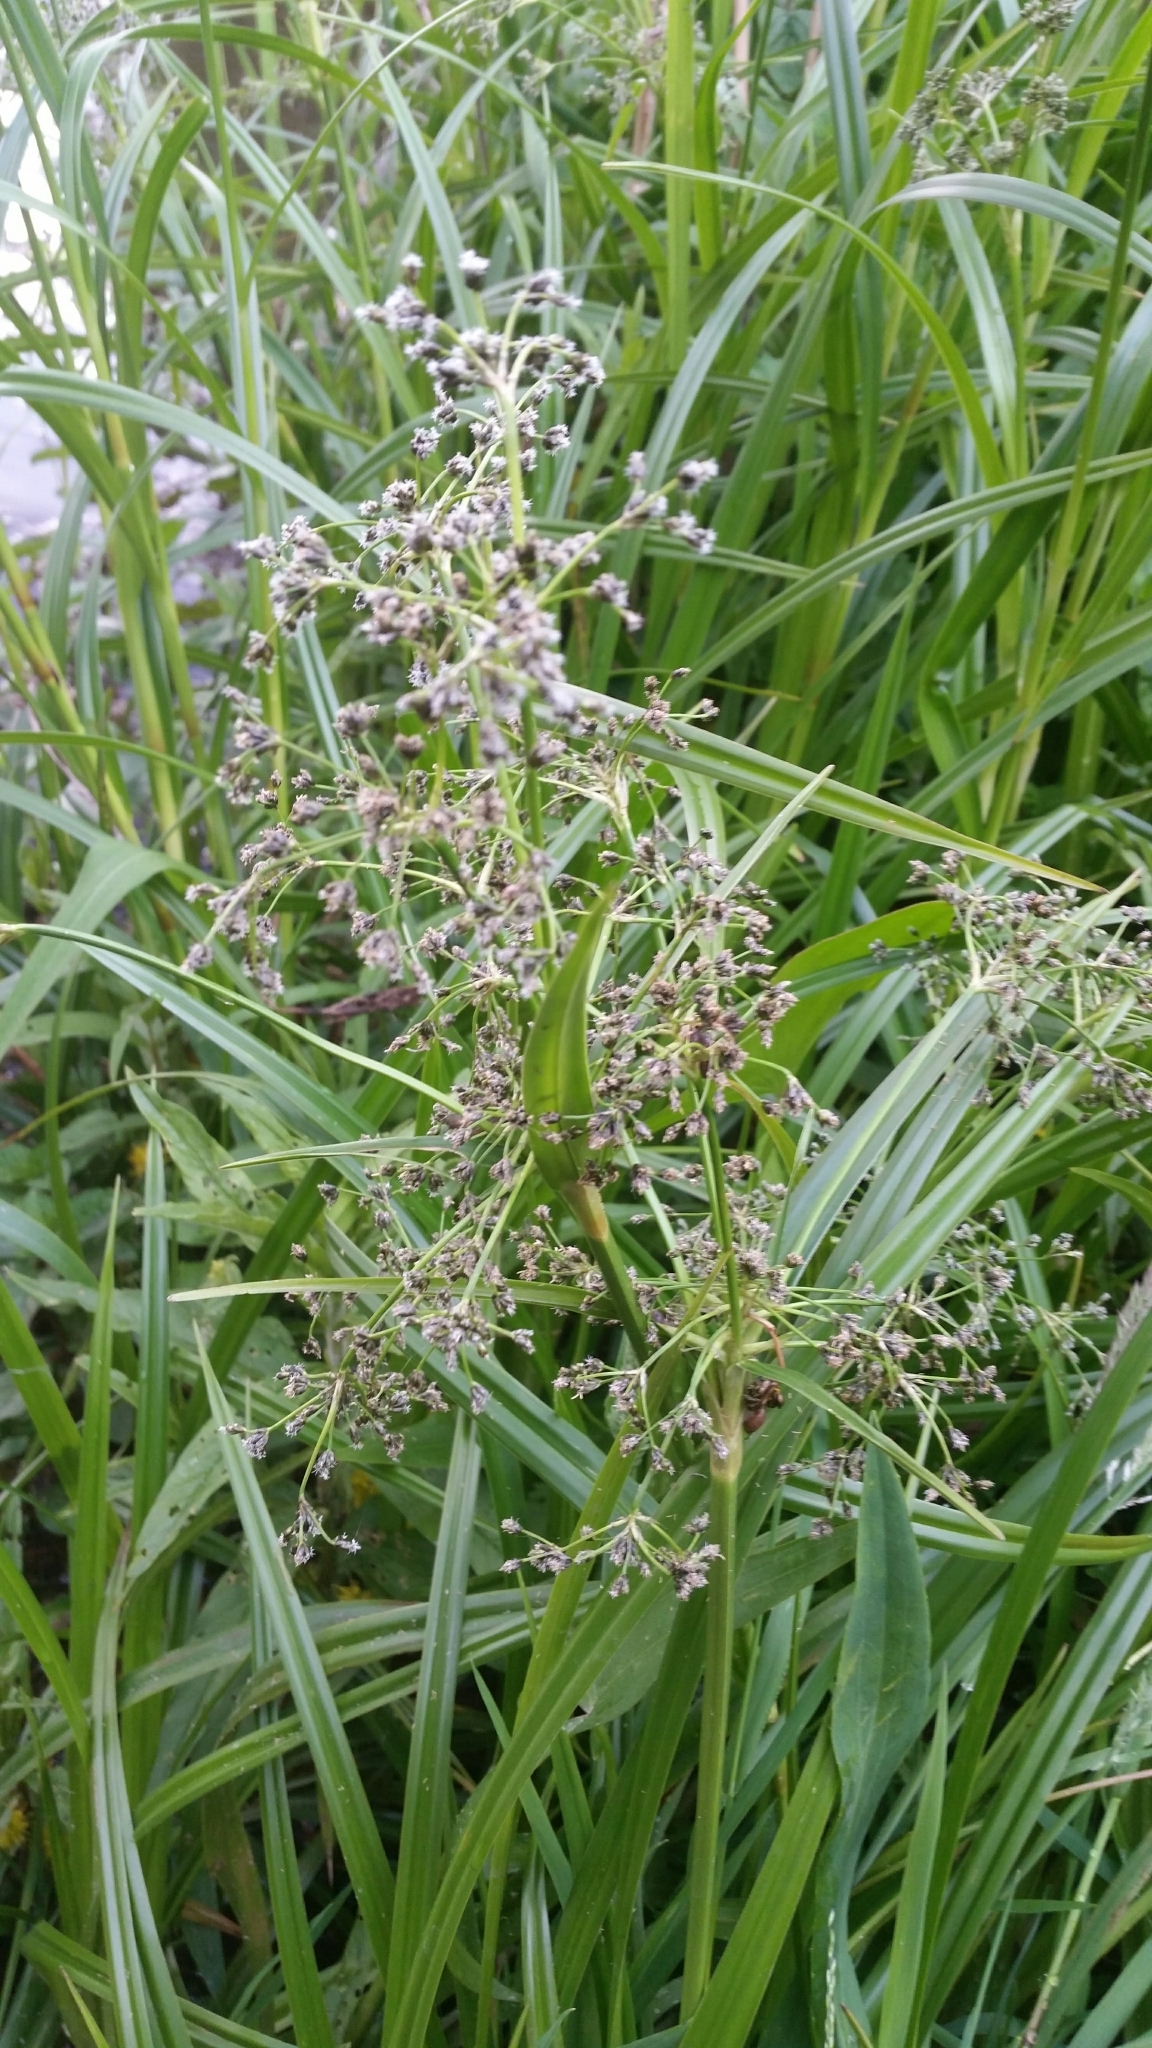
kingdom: Plantae
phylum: Tracheophyta
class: Liliopsida
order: Poales
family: Cyperaceae
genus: Scirpus
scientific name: Scirpus sylvaticus
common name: Wood club-rush
